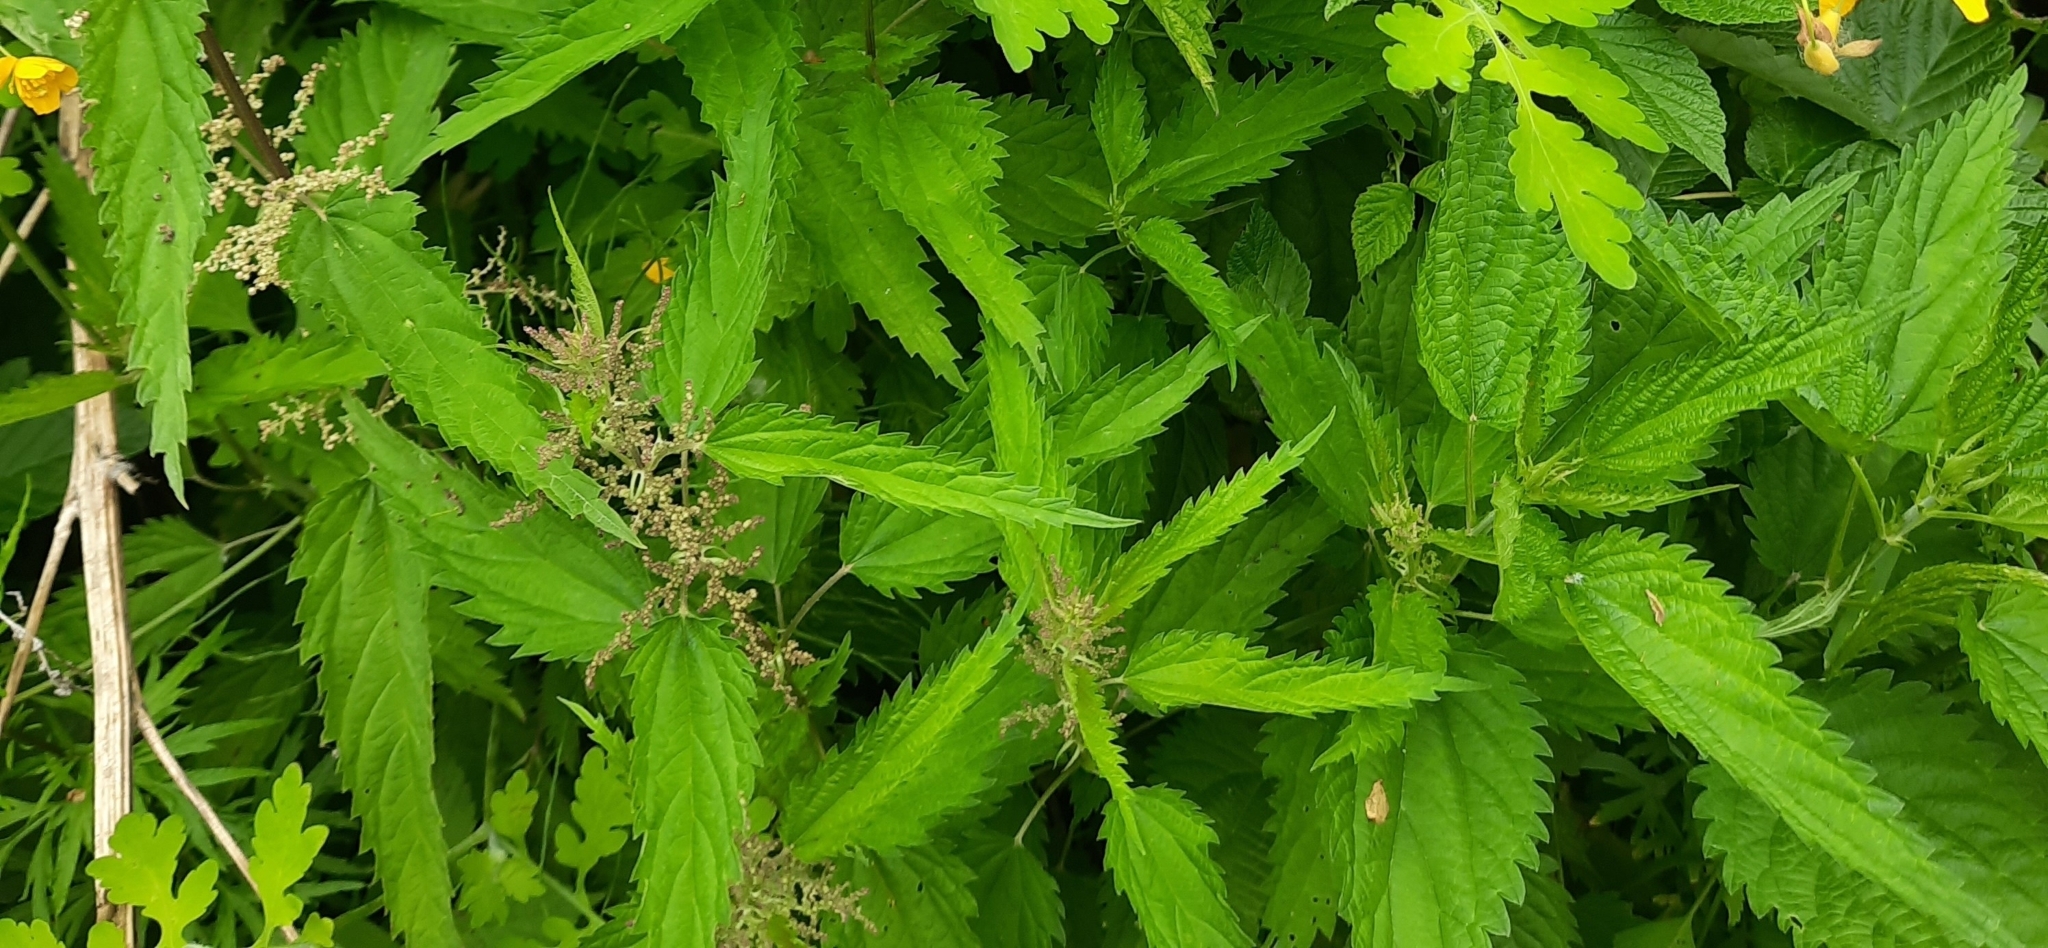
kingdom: Plantae
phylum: Tracheophyta
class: Magnoliopsida
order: Rosales
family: Urticaceae
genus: Urtica
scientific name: Urtica dioica
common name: Common nettle
